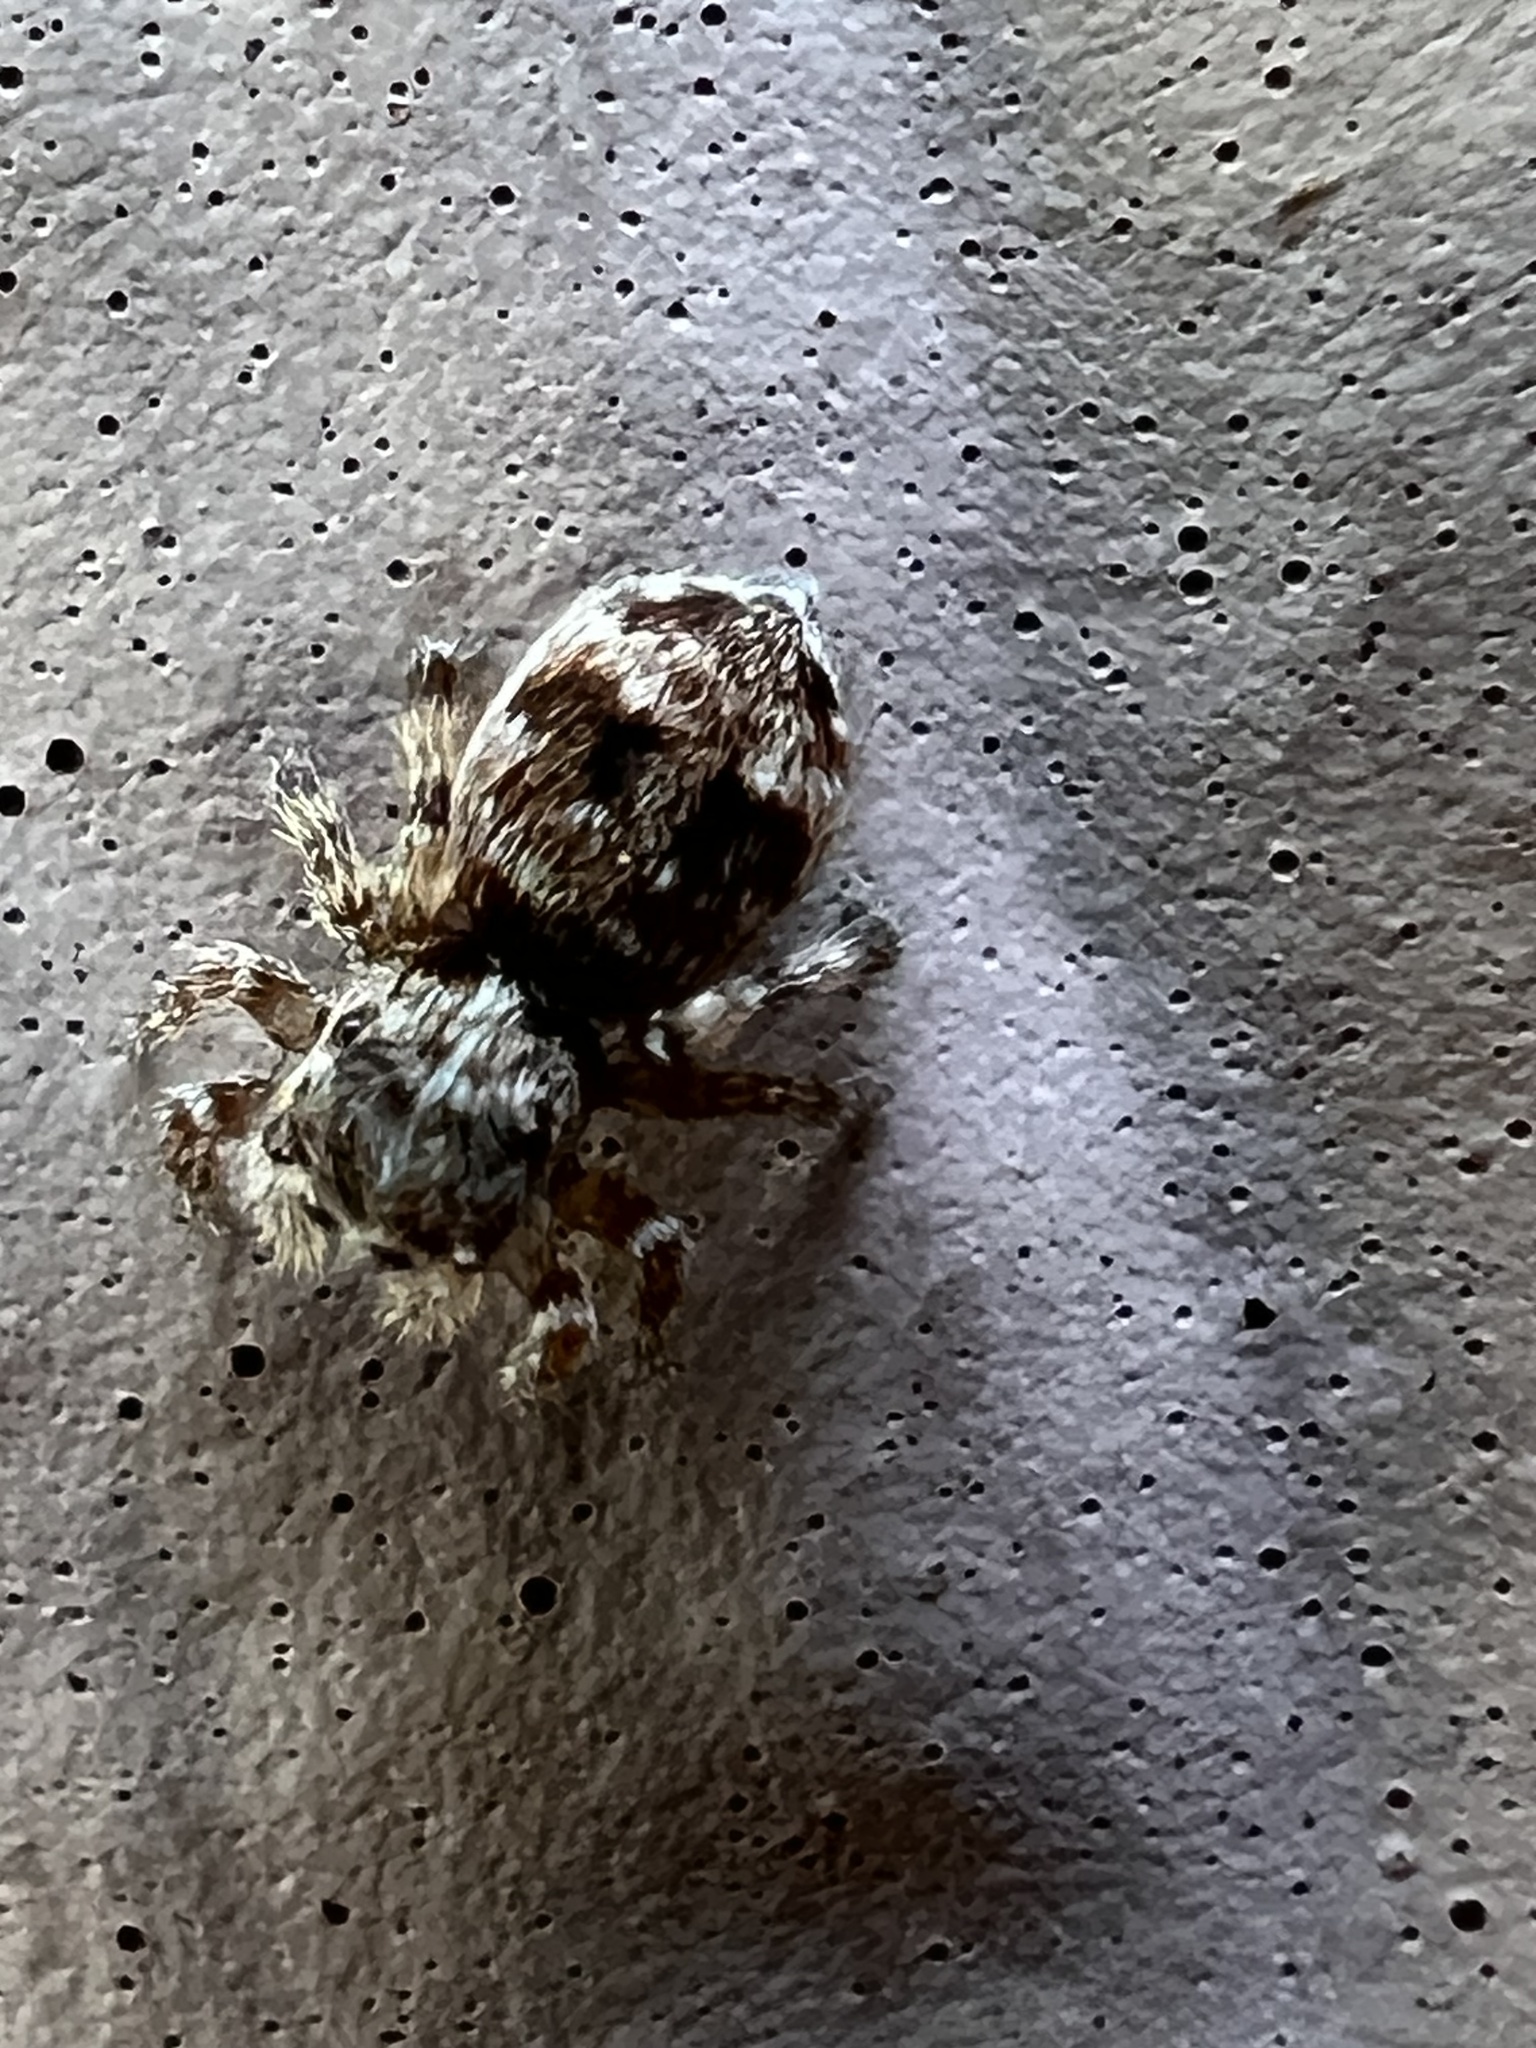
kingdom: Animalia
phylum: Arthropoda
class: Arachnida
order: Araneae
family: Salticidae
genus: Attulus
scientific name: Attulus fasciger
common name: Asiatic wall jumping spider
